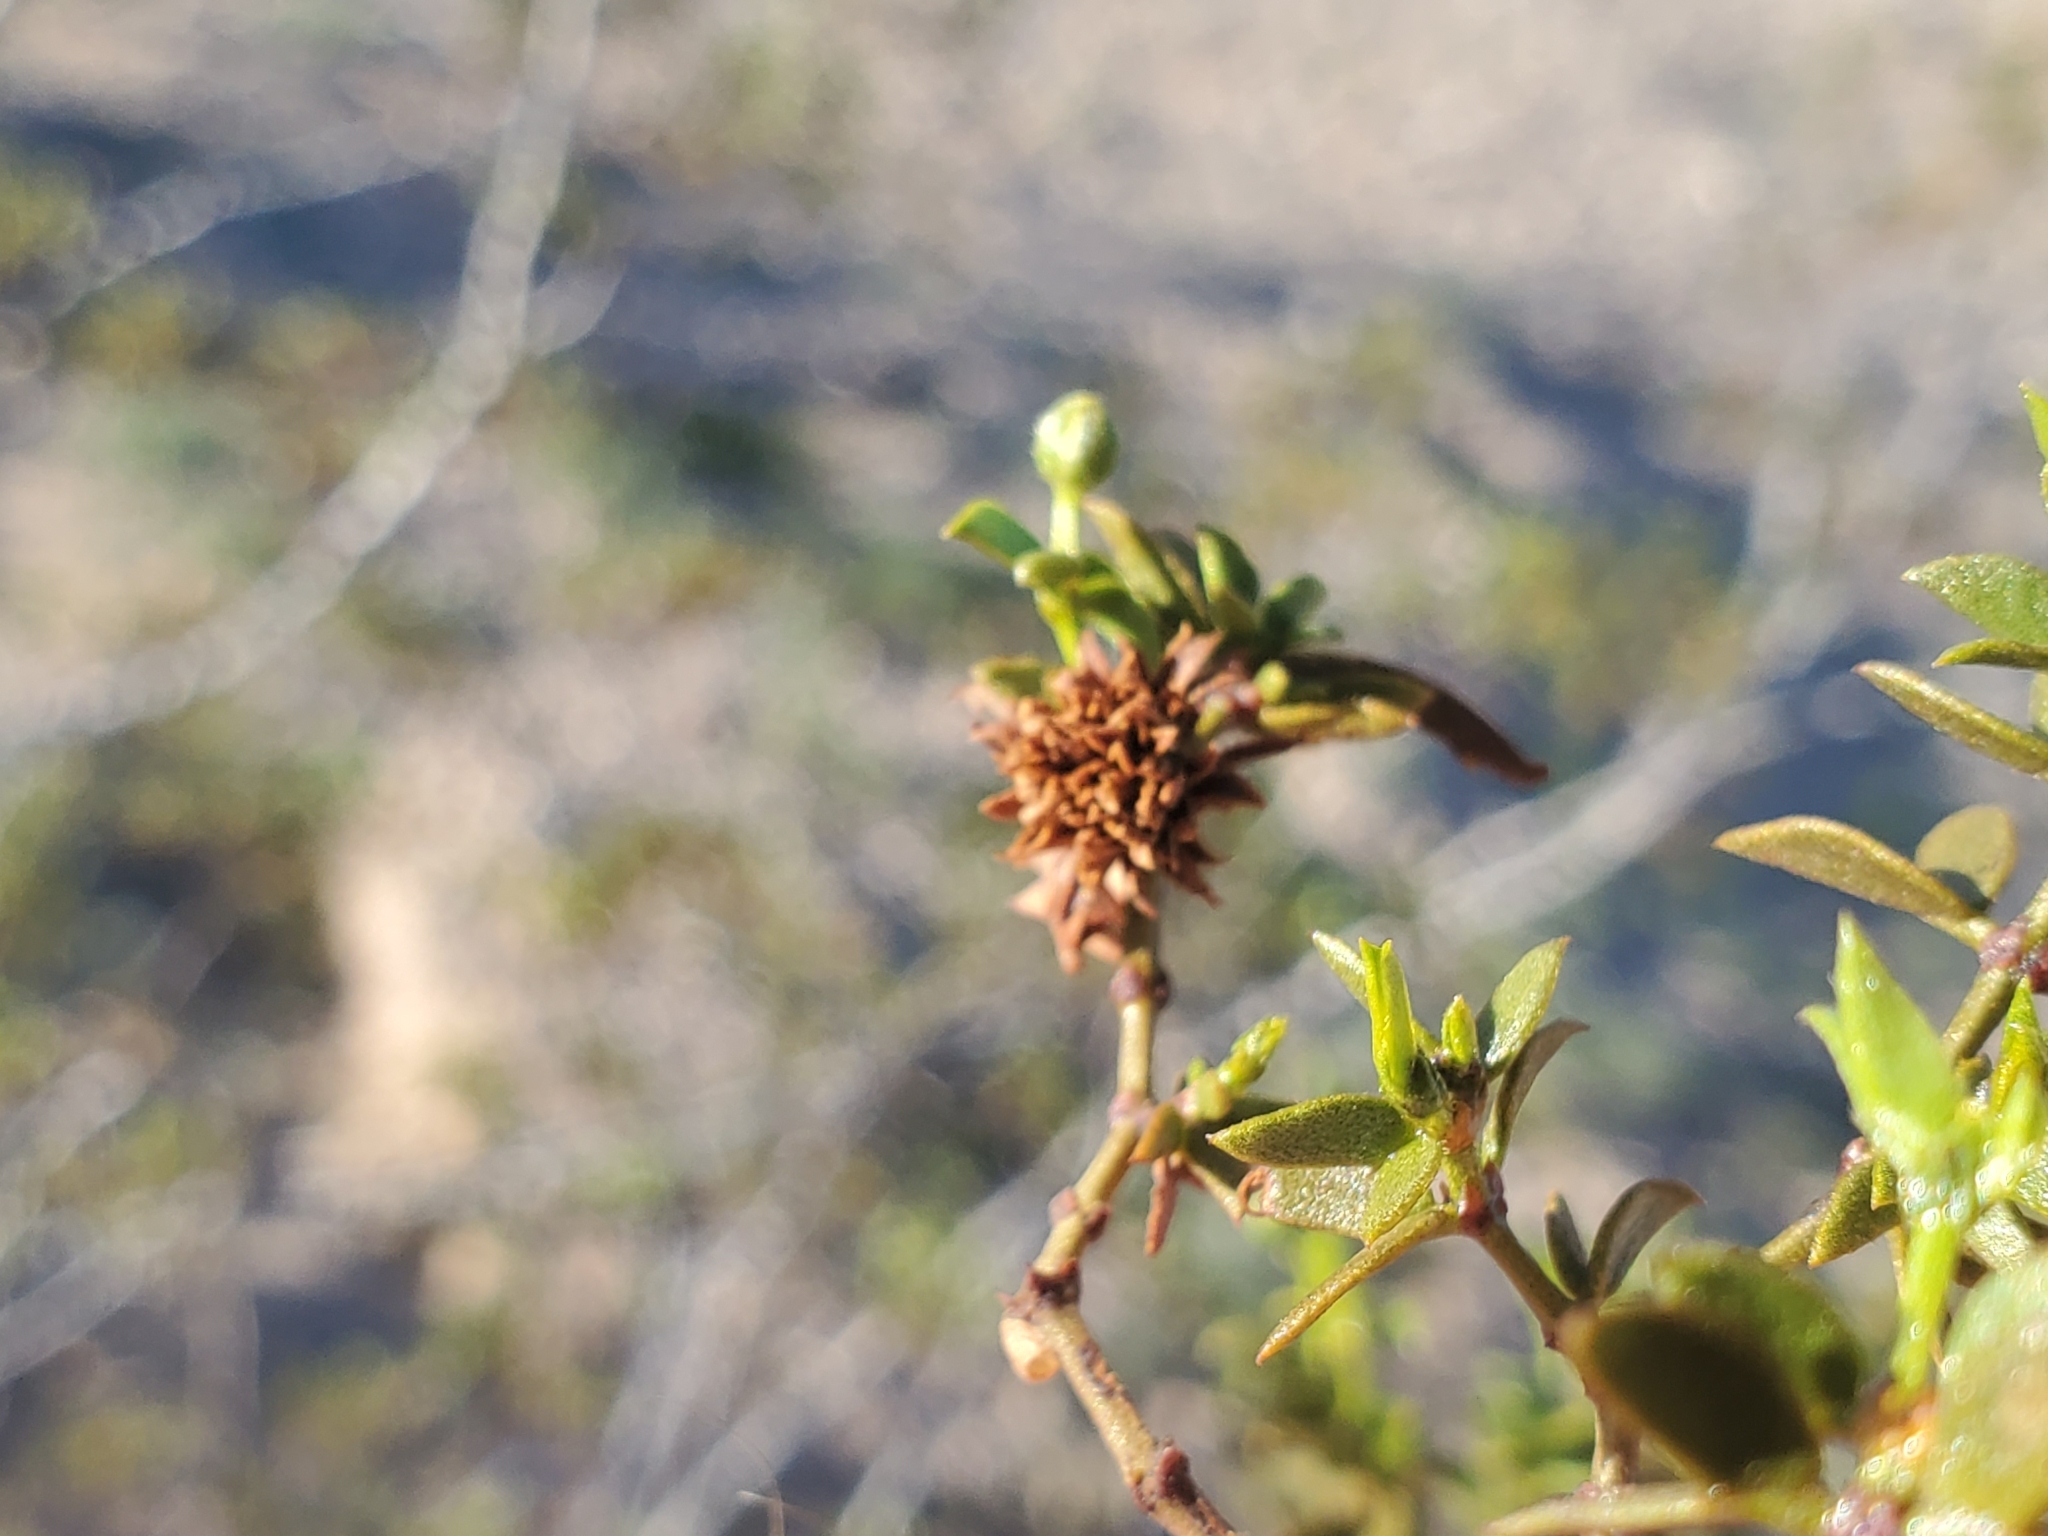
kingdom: Animalia
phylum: Arthropoda
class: Insecta
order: Diptera
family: Cecidomyiidae
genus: Asphondylia
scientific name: Asphondylia rosetta
